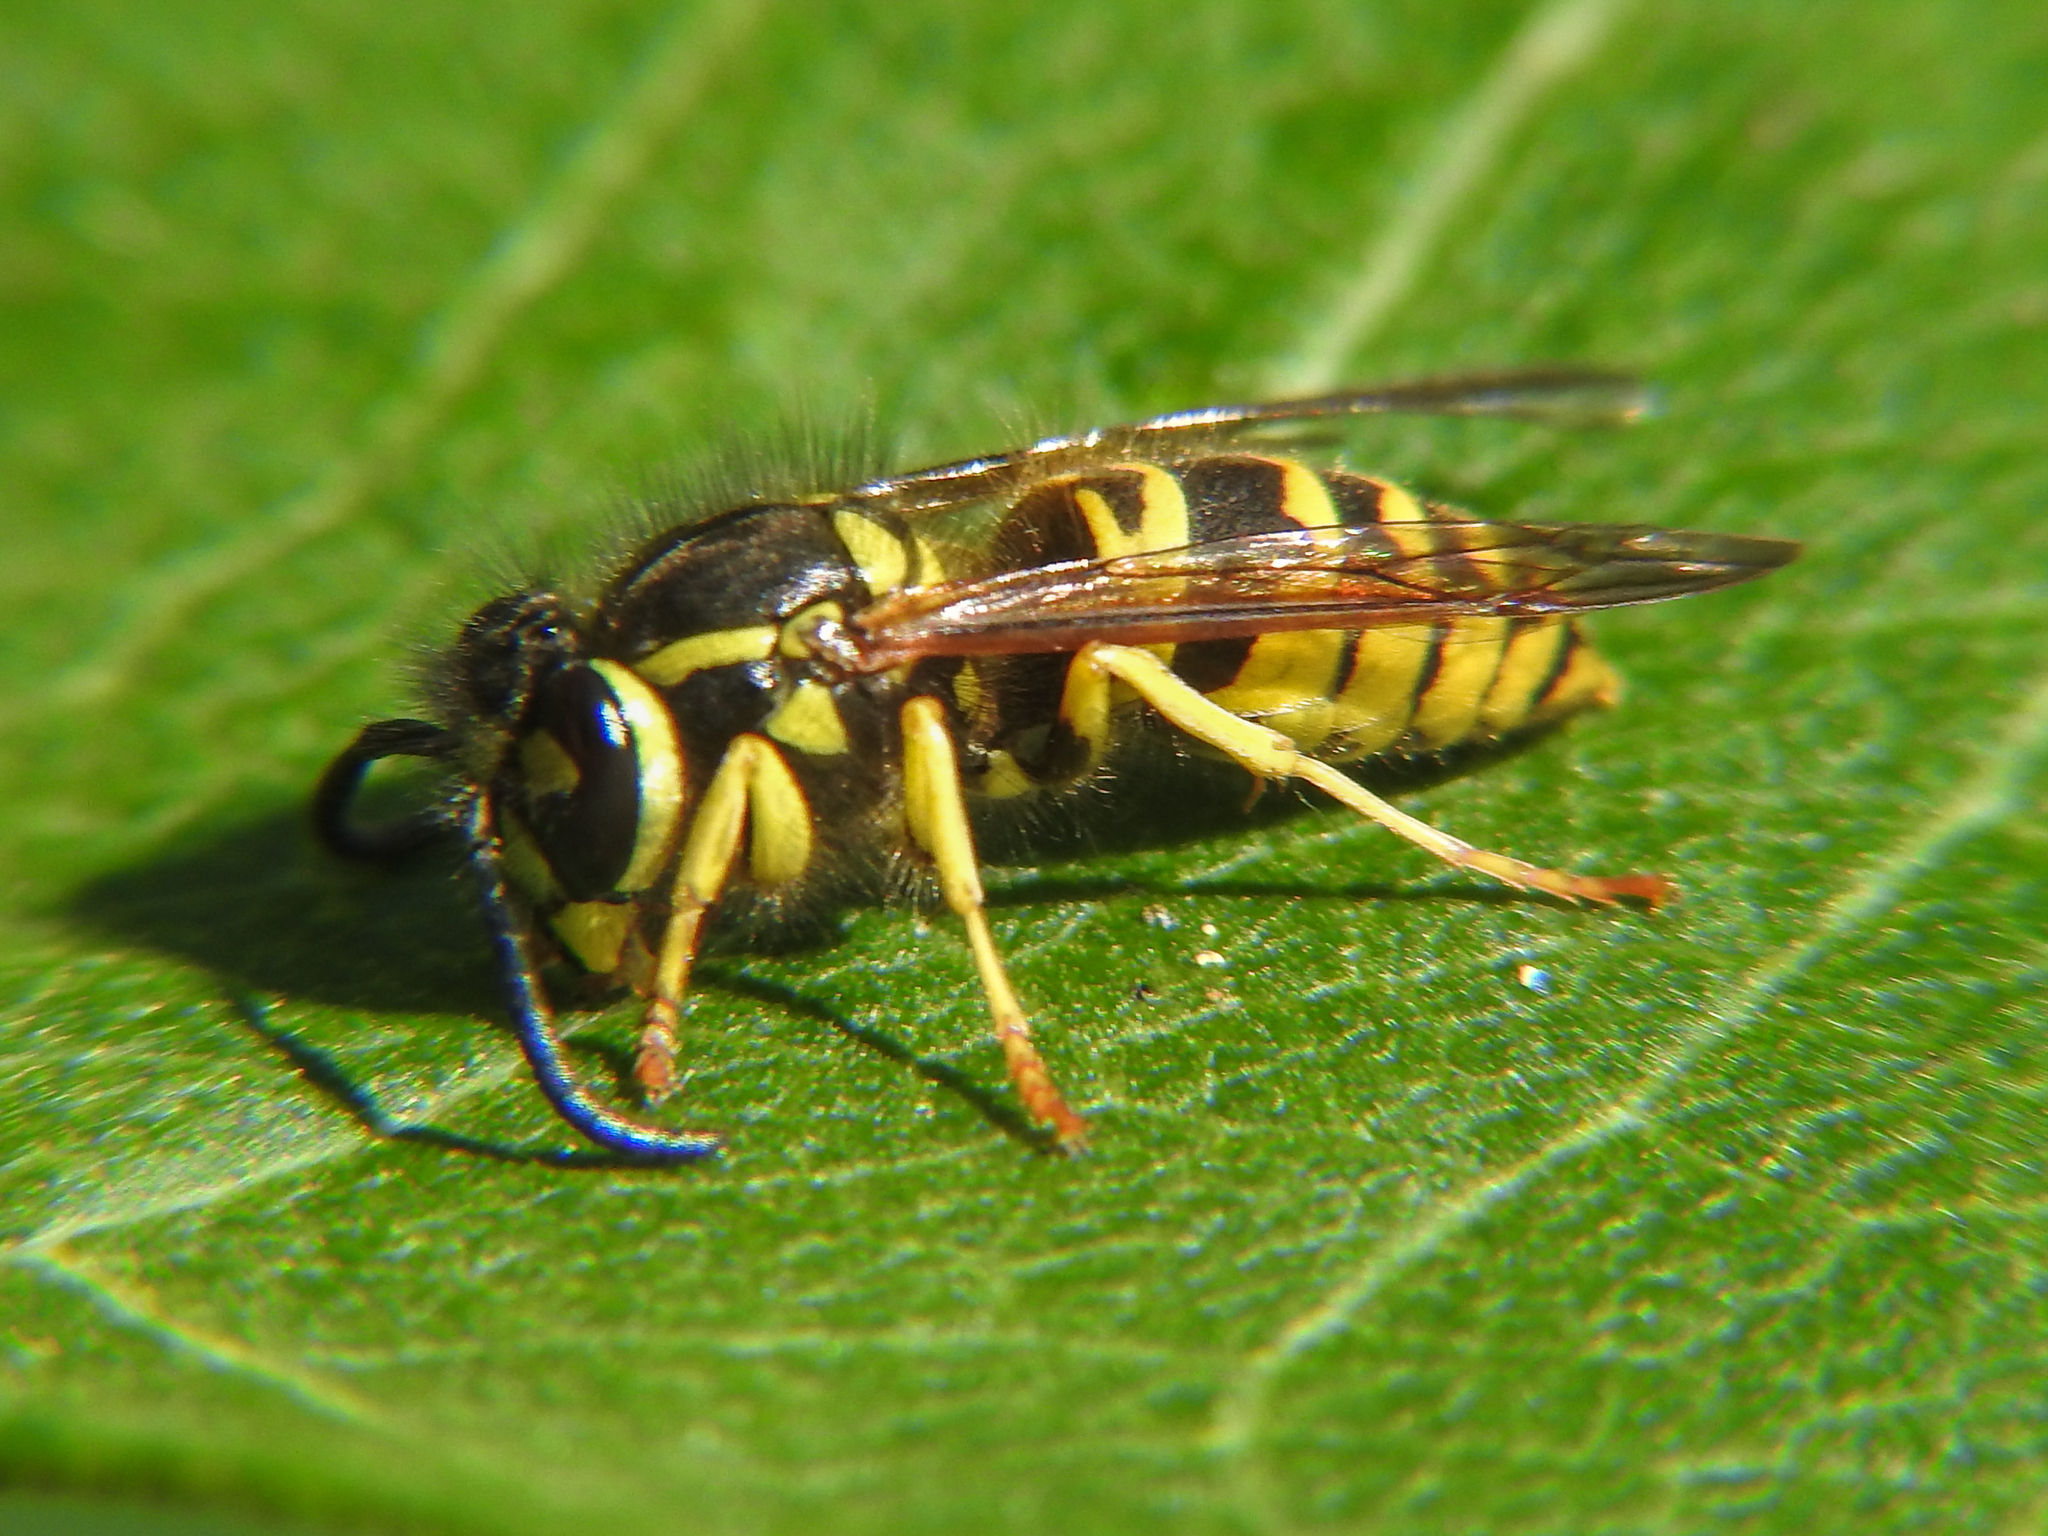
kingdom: Animalia
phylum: Arthropoda
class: Insecta
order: Hymenoptera
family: Vespidae
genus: Vespula
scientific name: Vespula maculifrons
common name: Eastern yellowjacket
